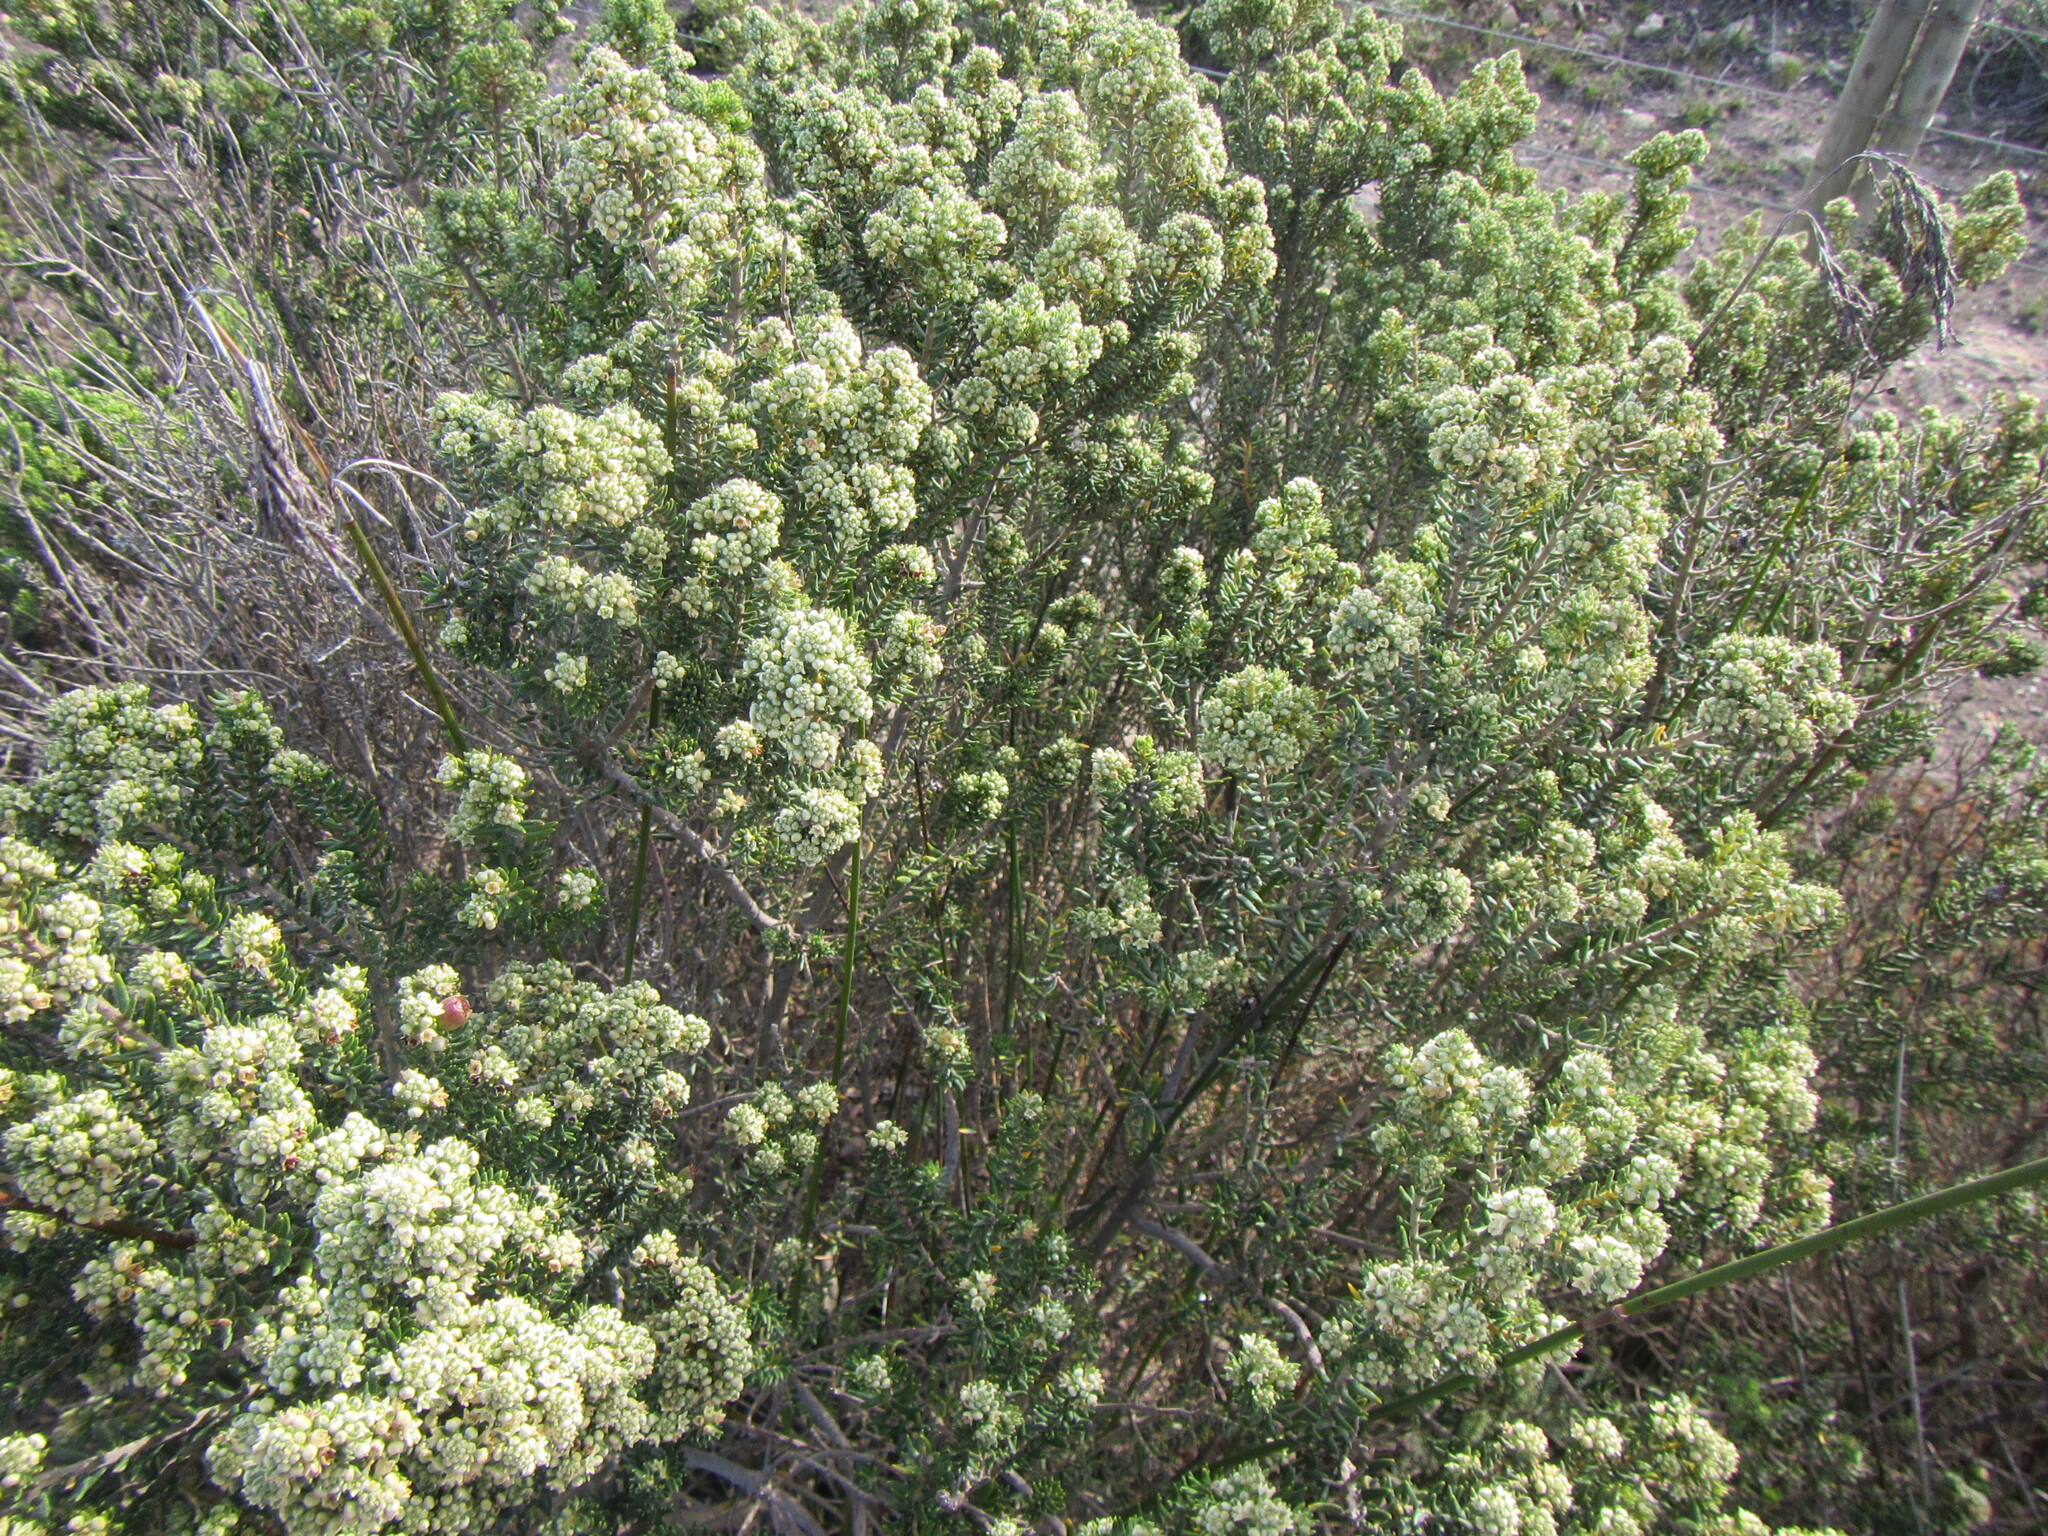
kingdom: Plantae
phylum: Tracheophyta
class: Magnoliopsida
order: Rosales
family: Rhamnaceae
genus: Phylica
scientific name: Phylica axillaris
